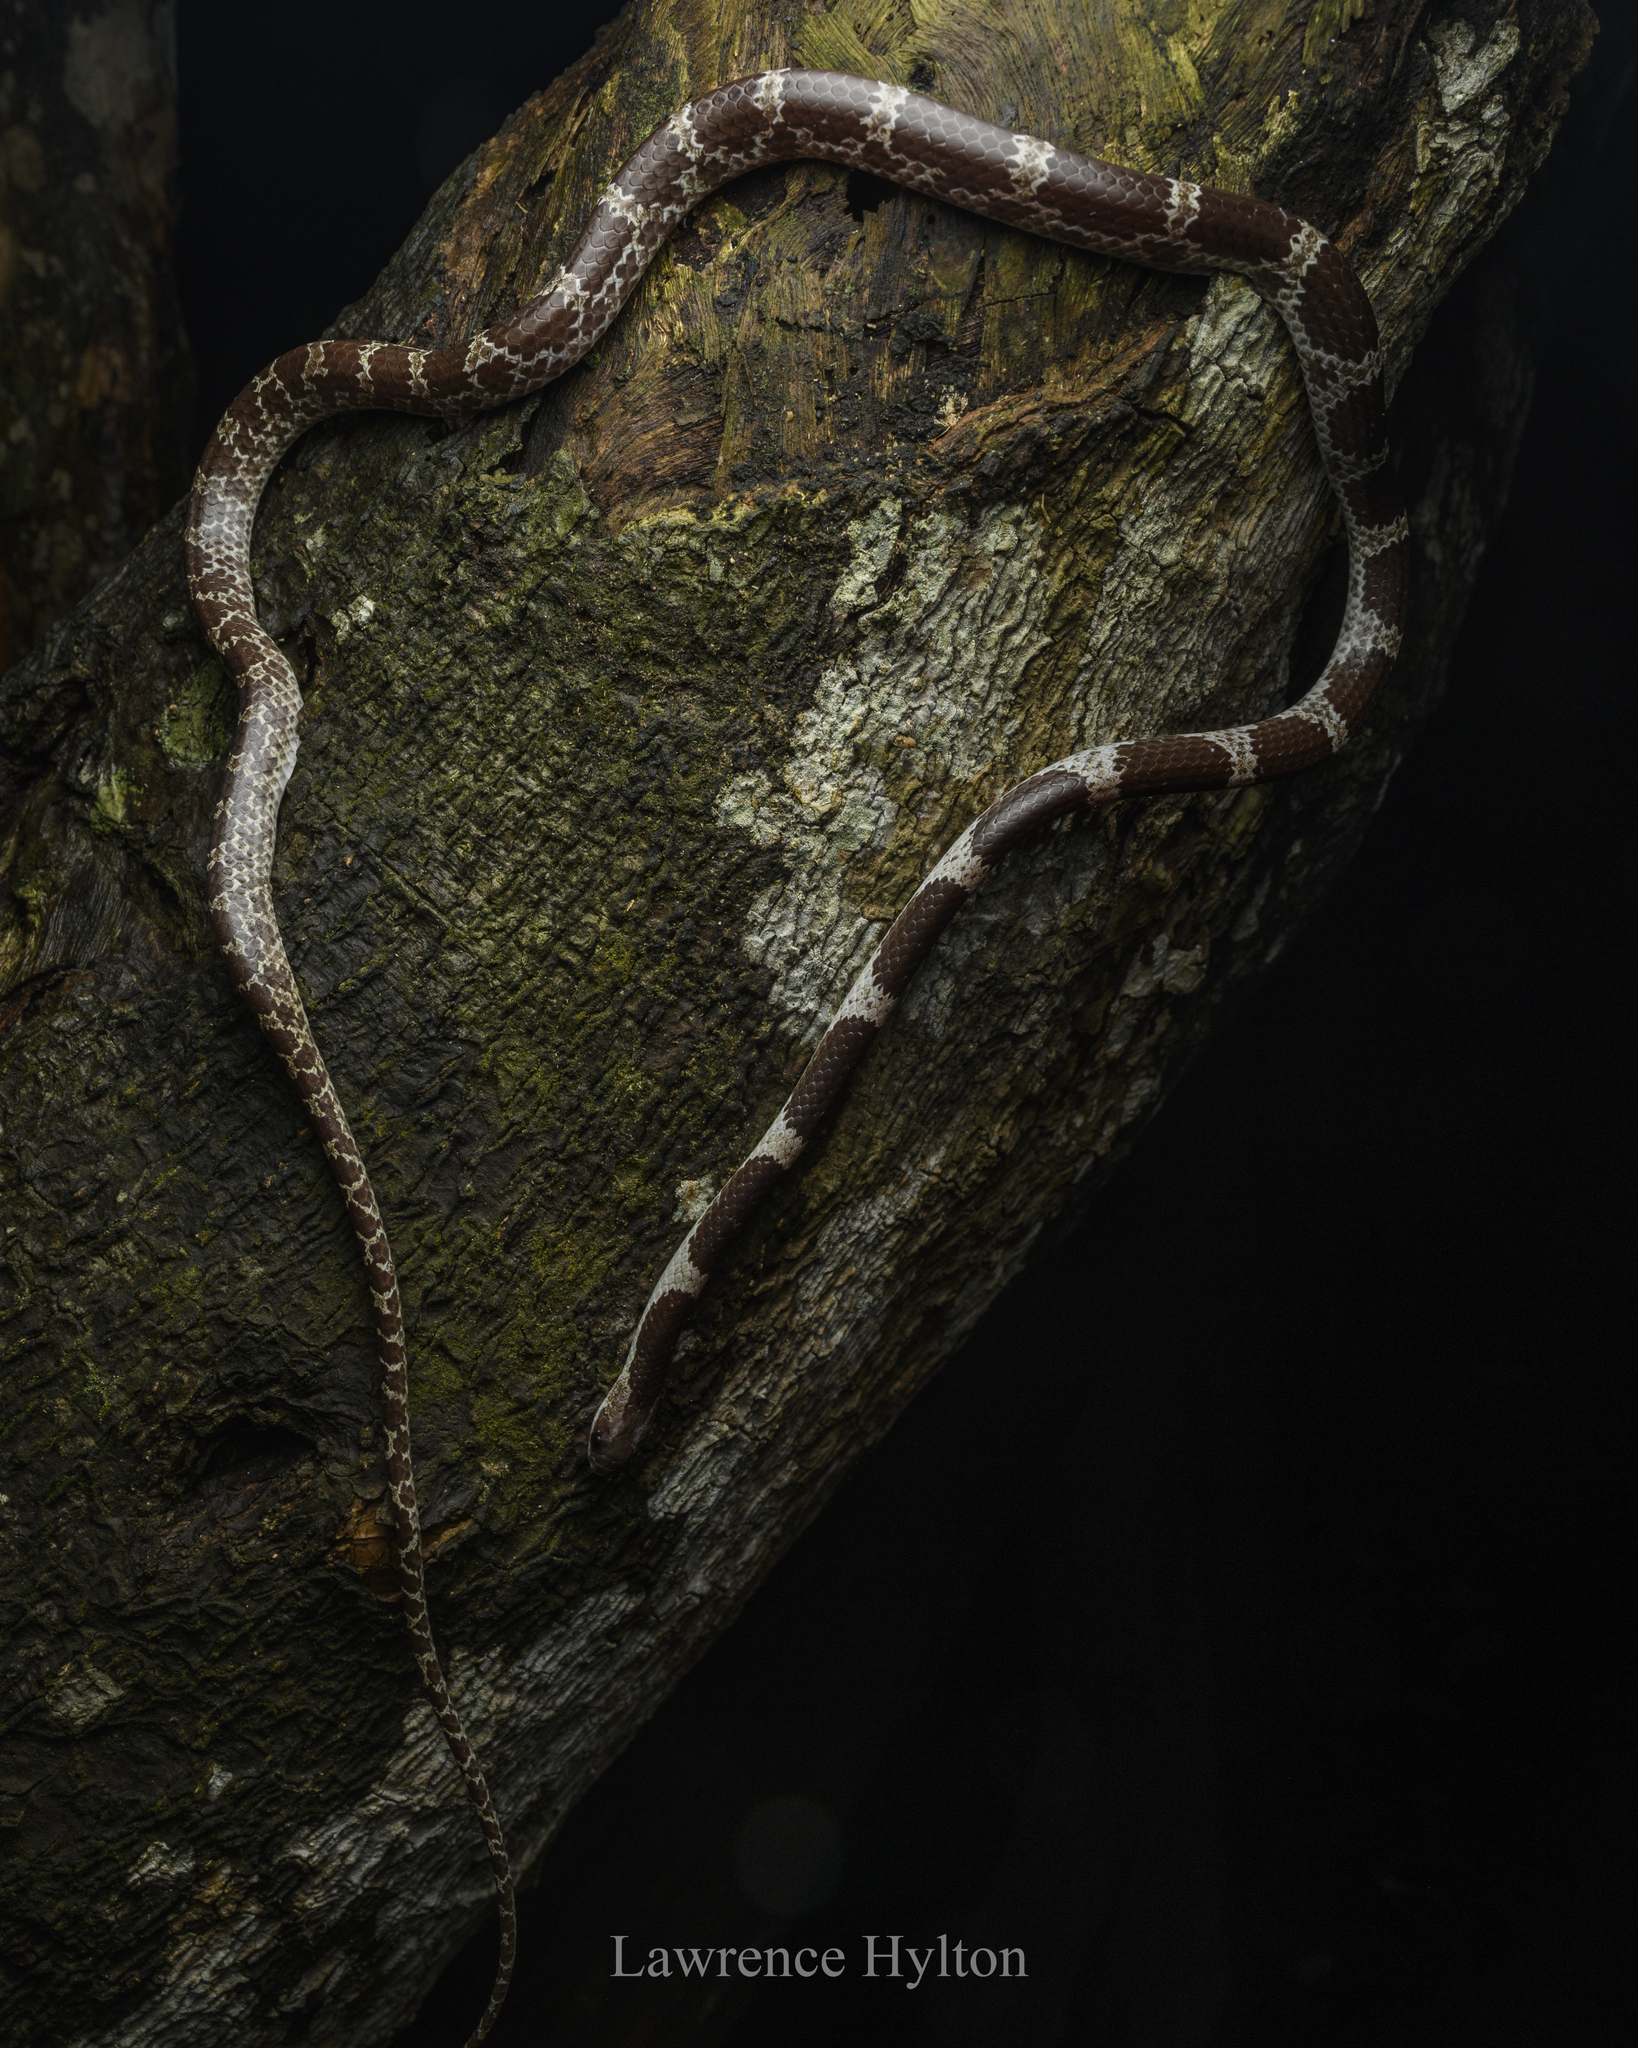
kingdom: Animalia
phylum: Chordata
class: Squamata
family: Colubridae
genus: Lycodon
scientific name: Lycodon davisonii
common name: Blanford's bridal snake
